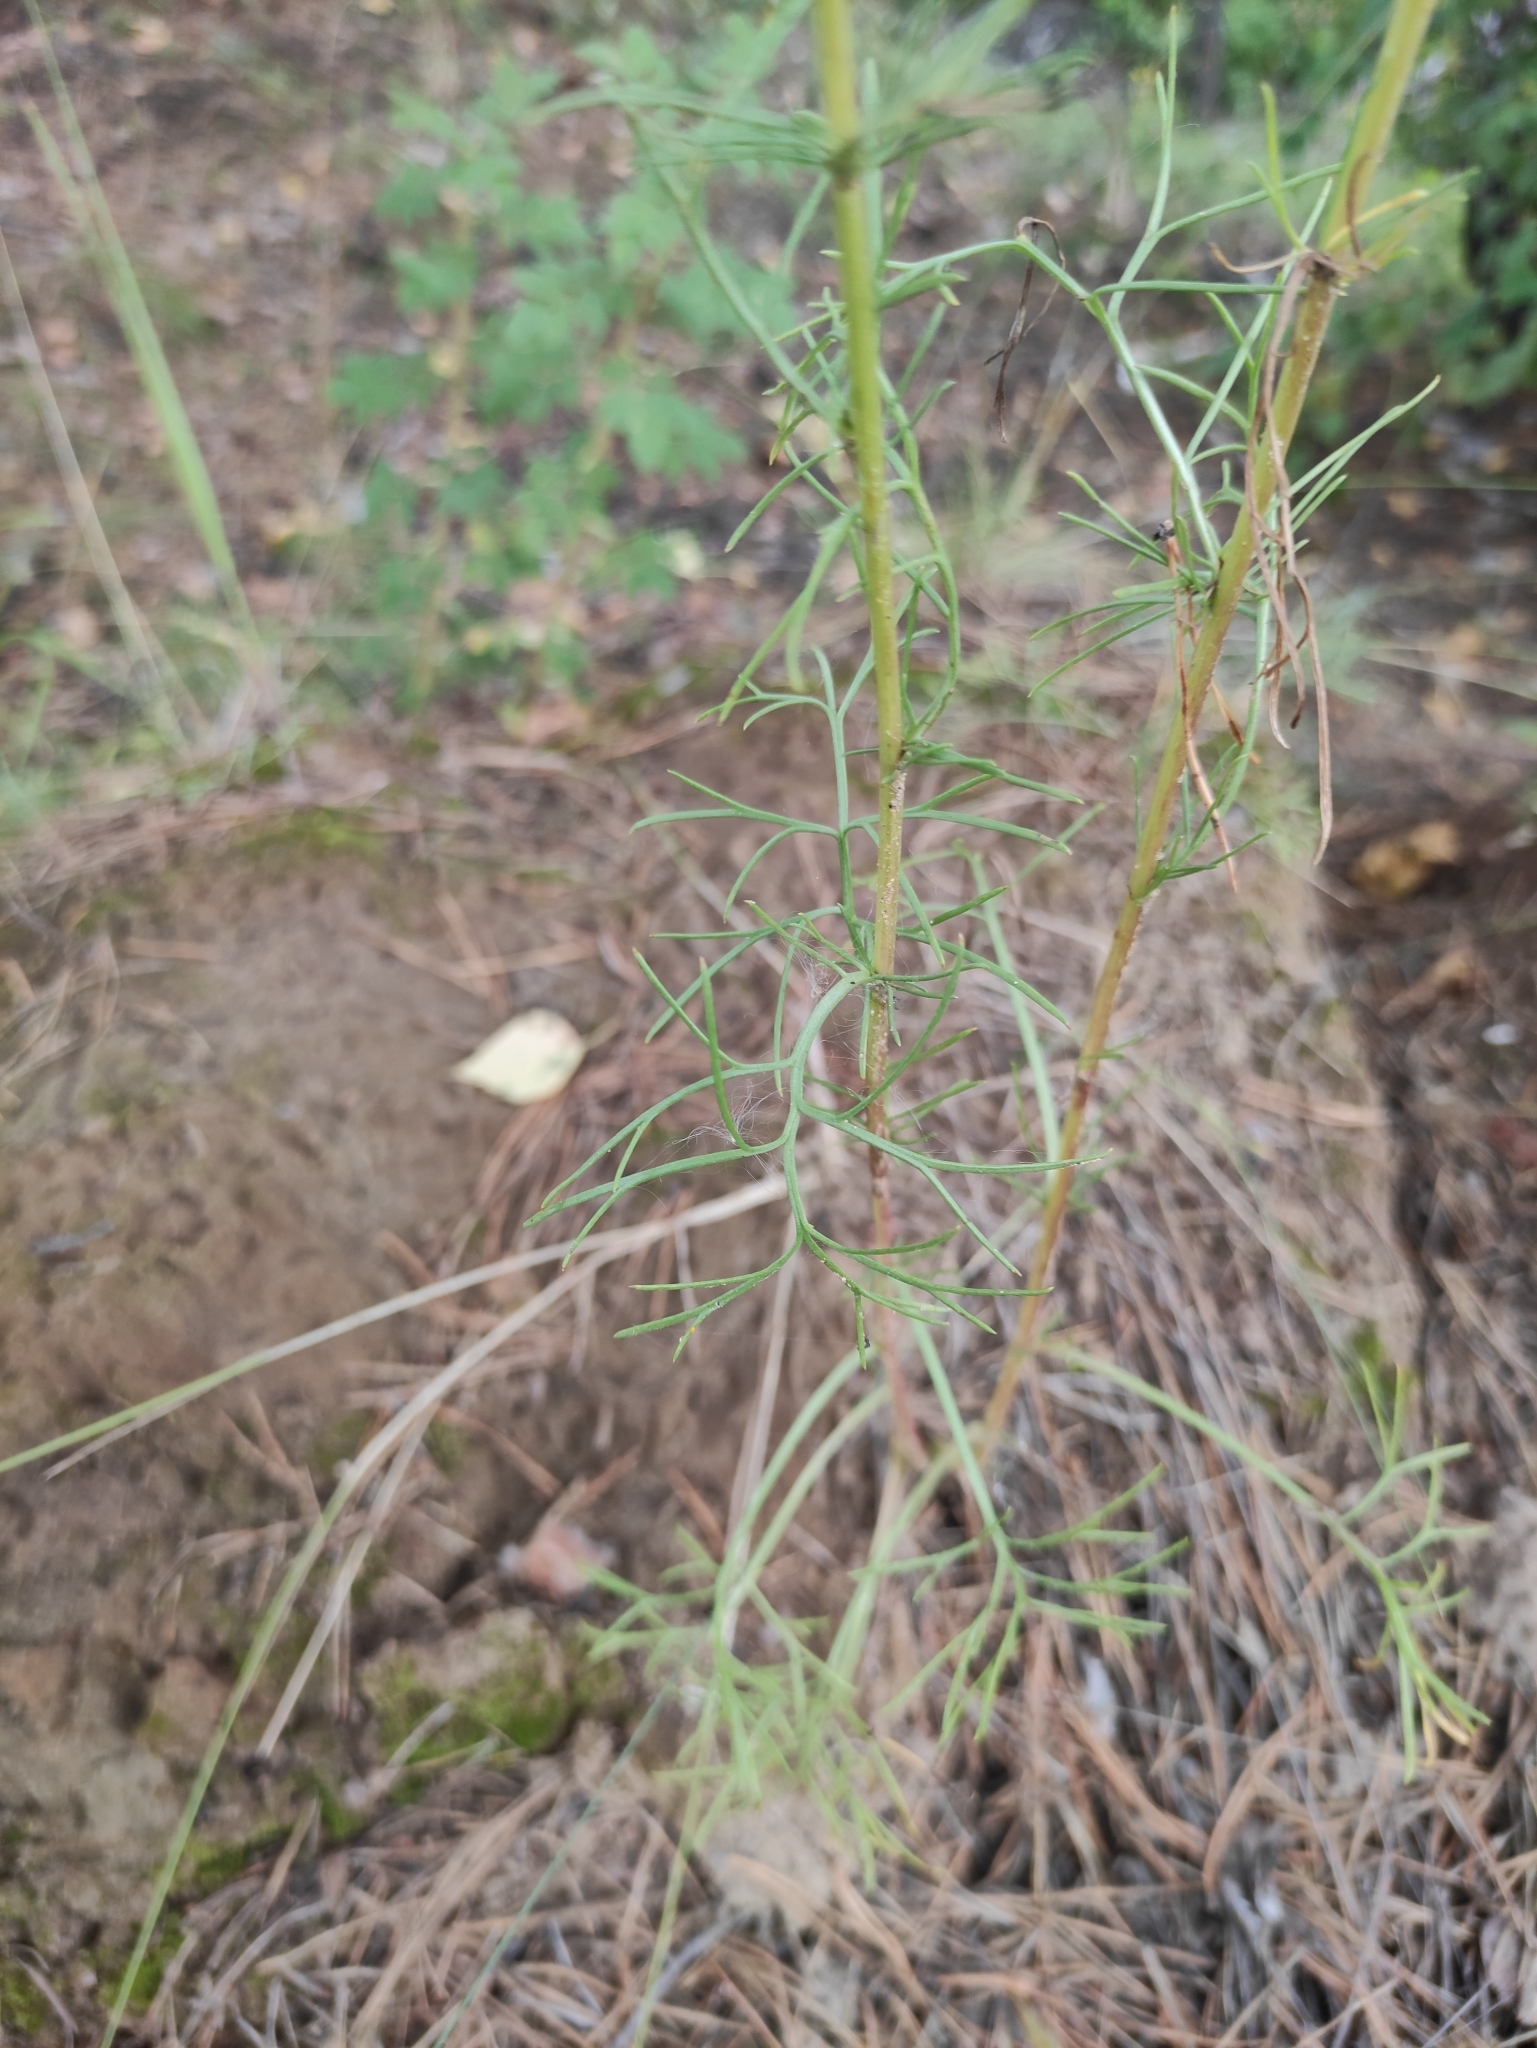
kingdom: Plantae
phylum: Tracheophyta
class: Magnoliopsida
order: Asterales
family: Asteraceae
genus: Artemisia
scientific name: Artemisia pubescens
